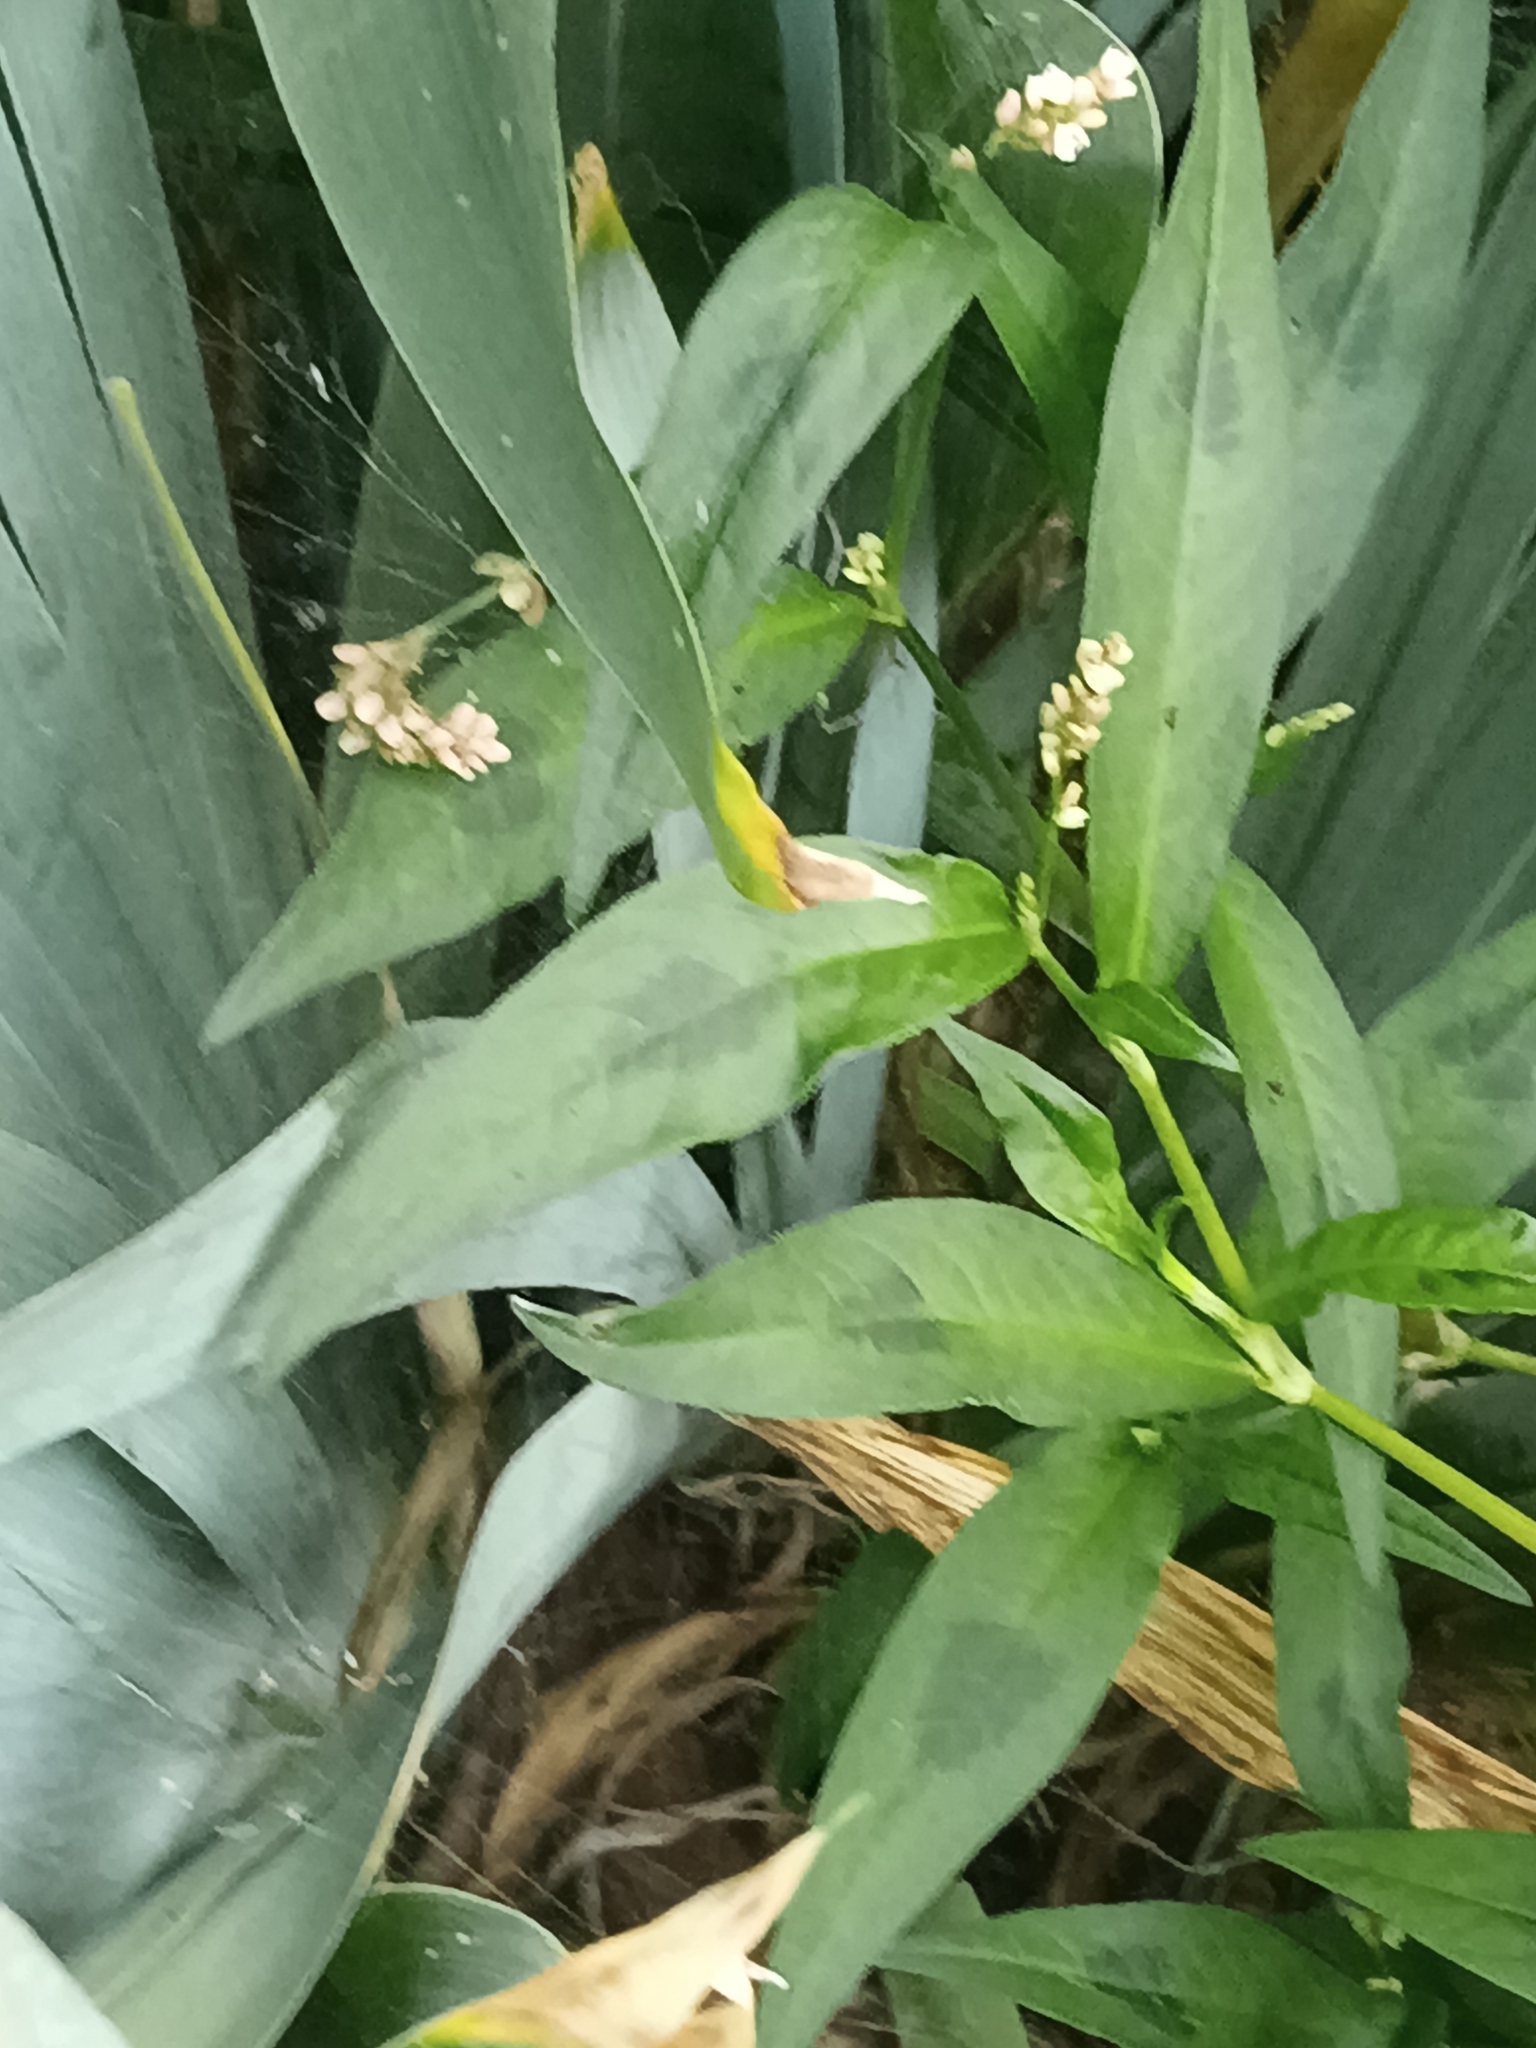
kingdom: Plantae
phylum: Tracheophyta
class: Magnoliopsida
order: Caryophyllales
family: Polygonaceae
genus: Persicaria
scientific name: Persicaria maculosa
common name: Redshank
